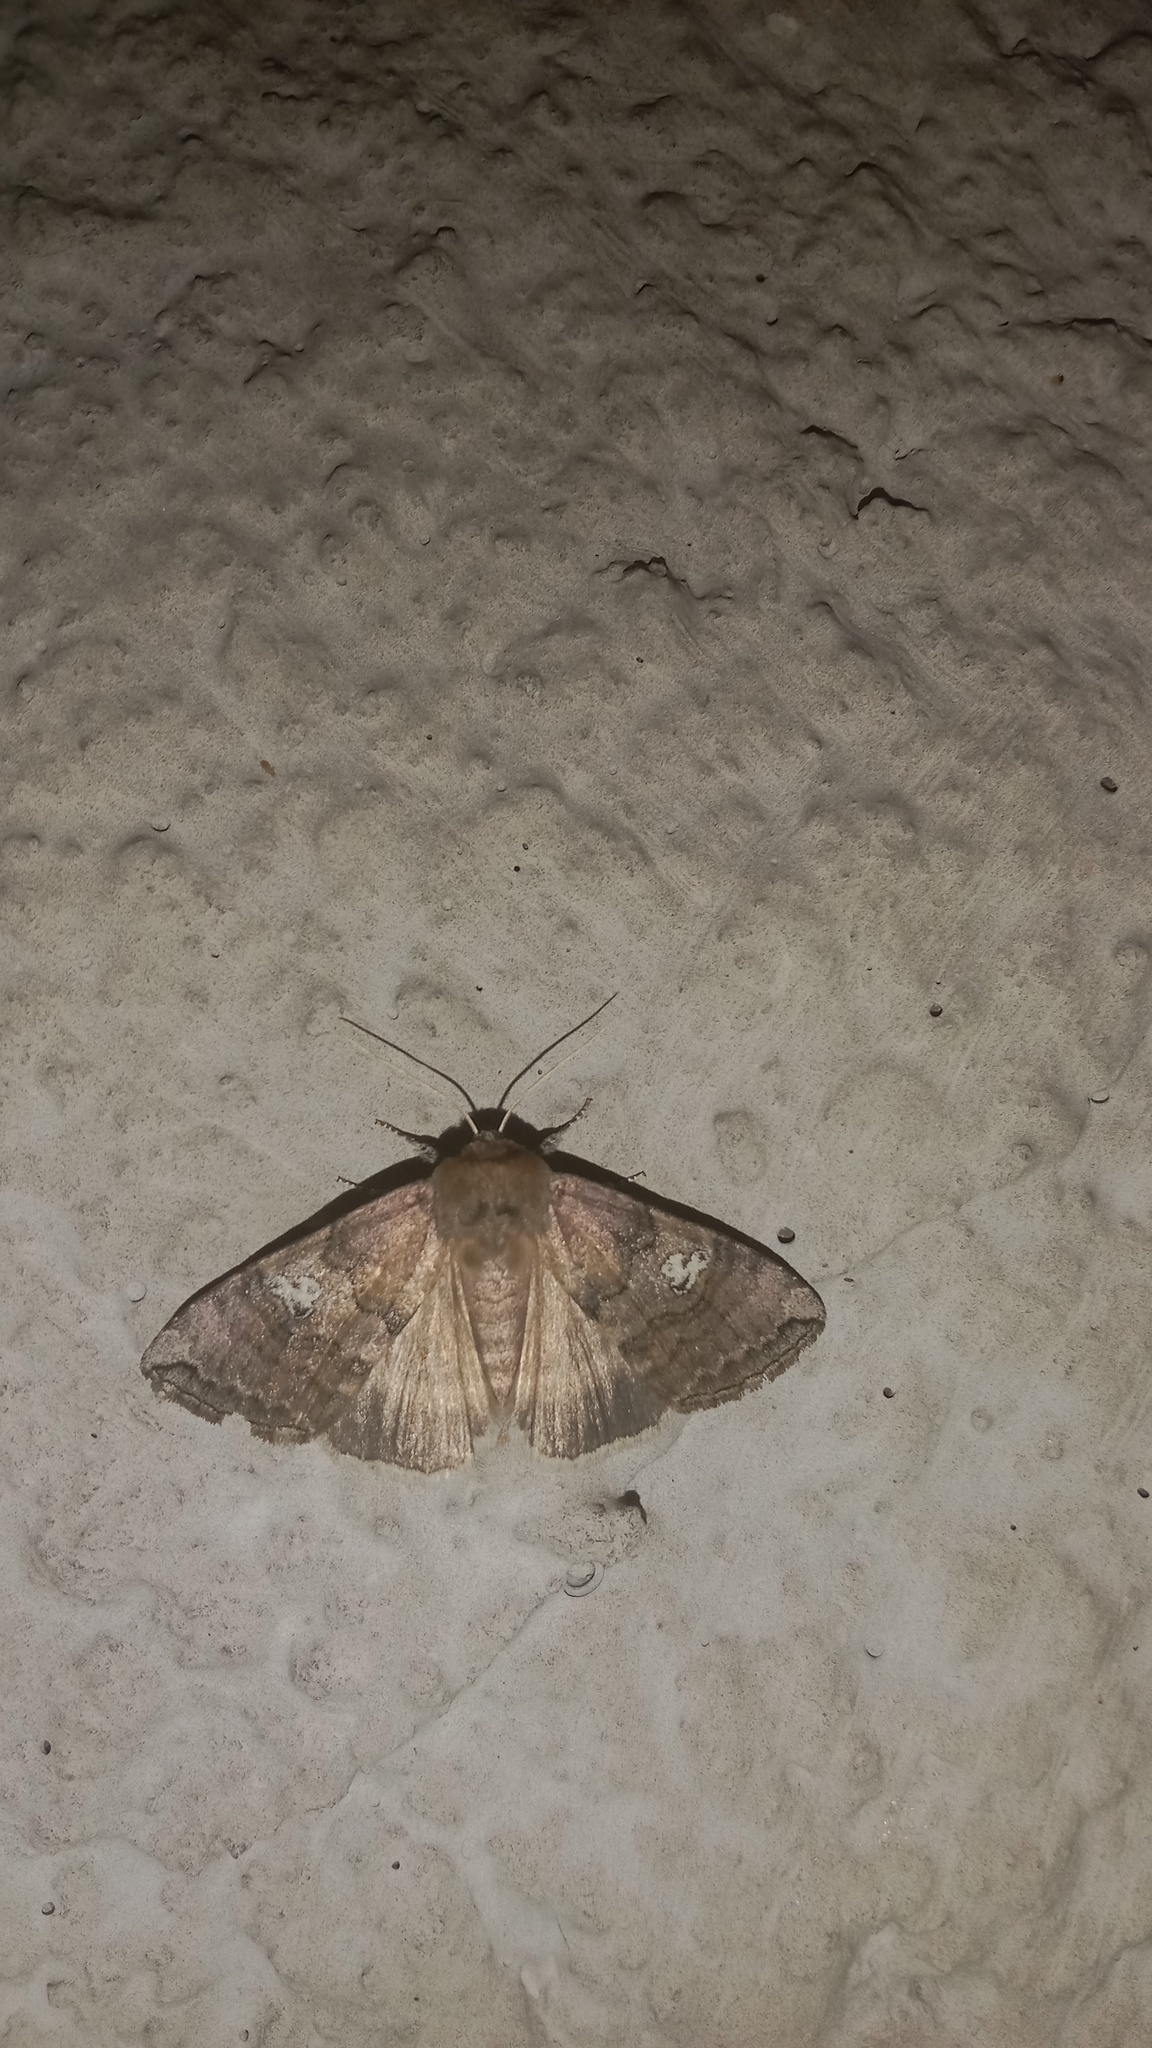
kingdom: Animalia
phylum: Arthropoda
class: Insecta
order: Lepidoptera
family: Drepanidae
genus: Tethea
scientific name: Tethea ocularis
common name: Figure of eighty
